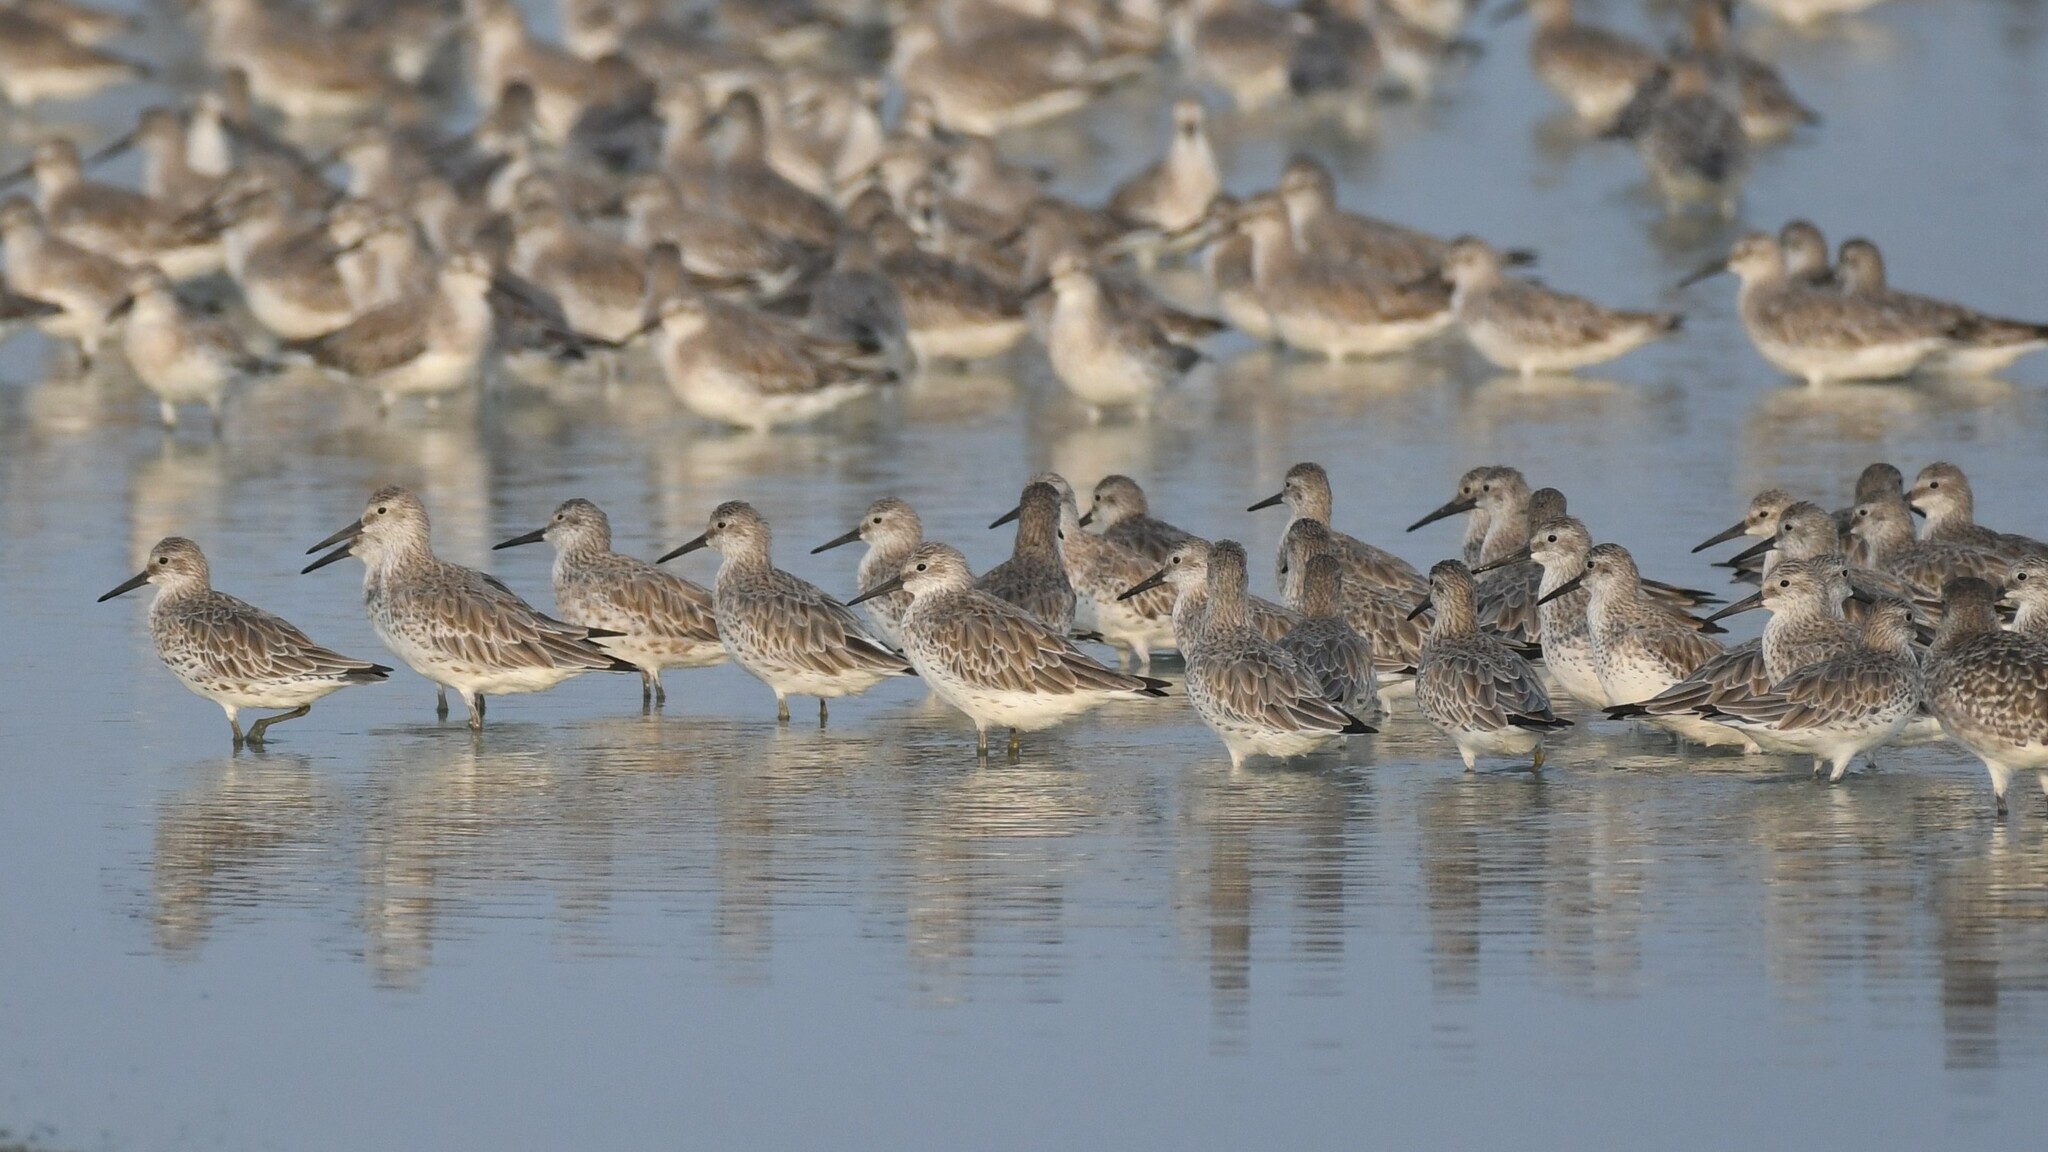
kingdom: Animalia
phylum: Chordata
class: Aves
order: Charadriiformes
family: Scolopacidae
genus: Calidris
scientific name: Calidris tenuirostris
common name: Great knot
